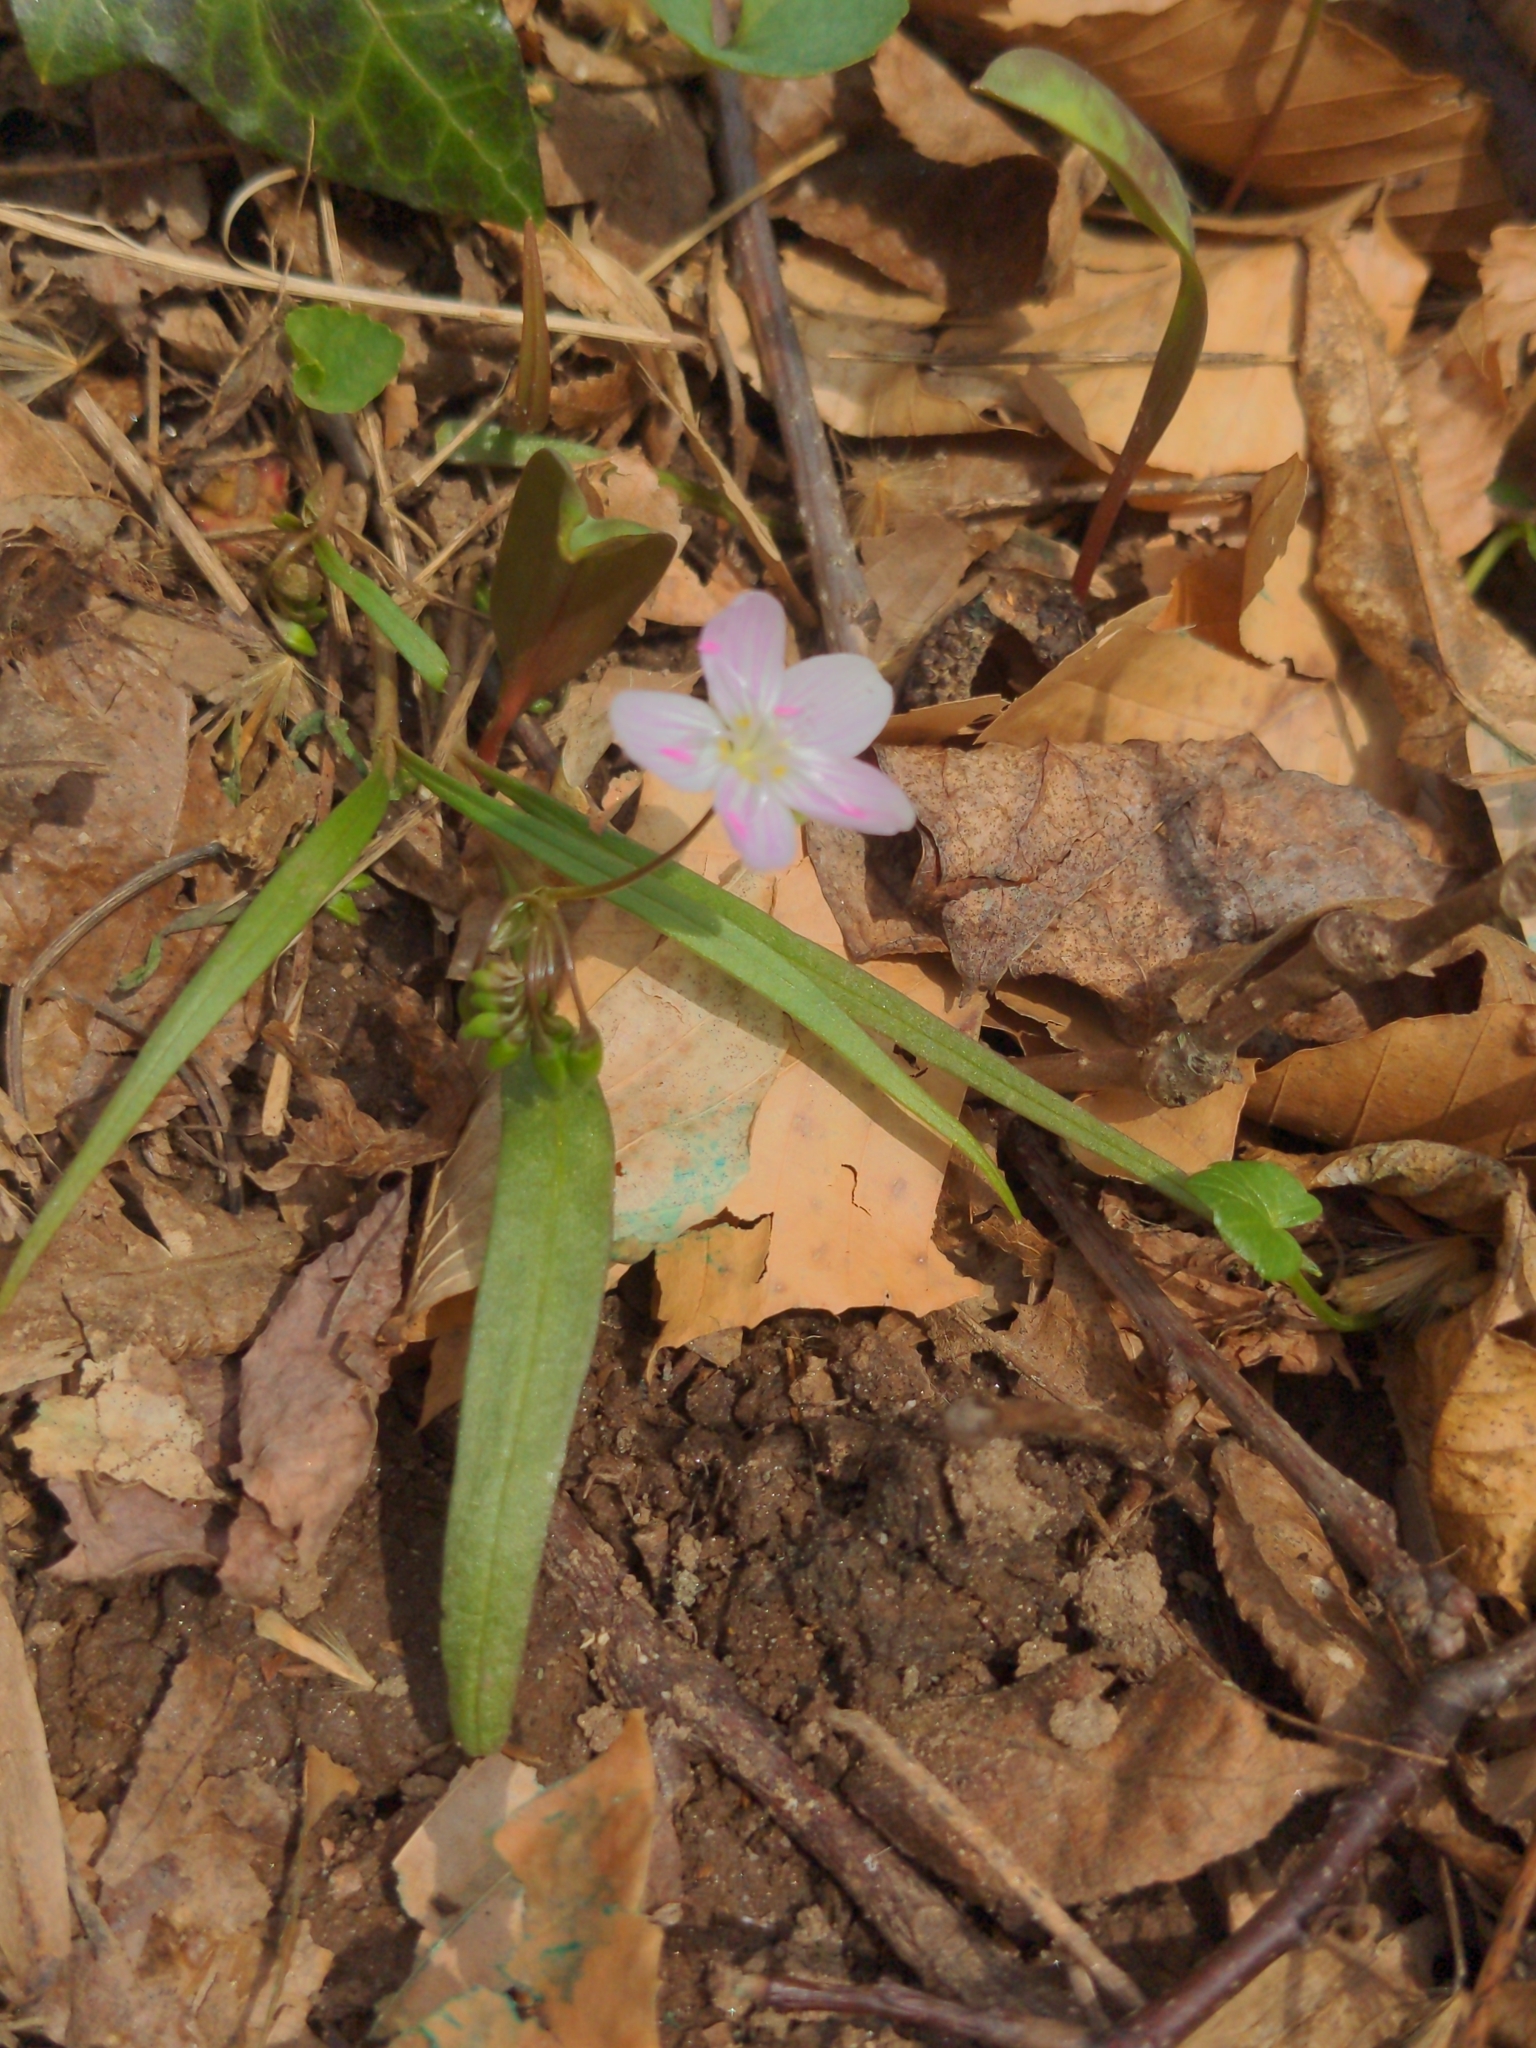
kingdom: Plantae
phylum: Tracheophyta
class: Magnoliopsida
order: Caryophyllales
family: Montiaceae
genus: Claytonia
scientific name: Claytonia virginica
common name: Virginia springbeauty
